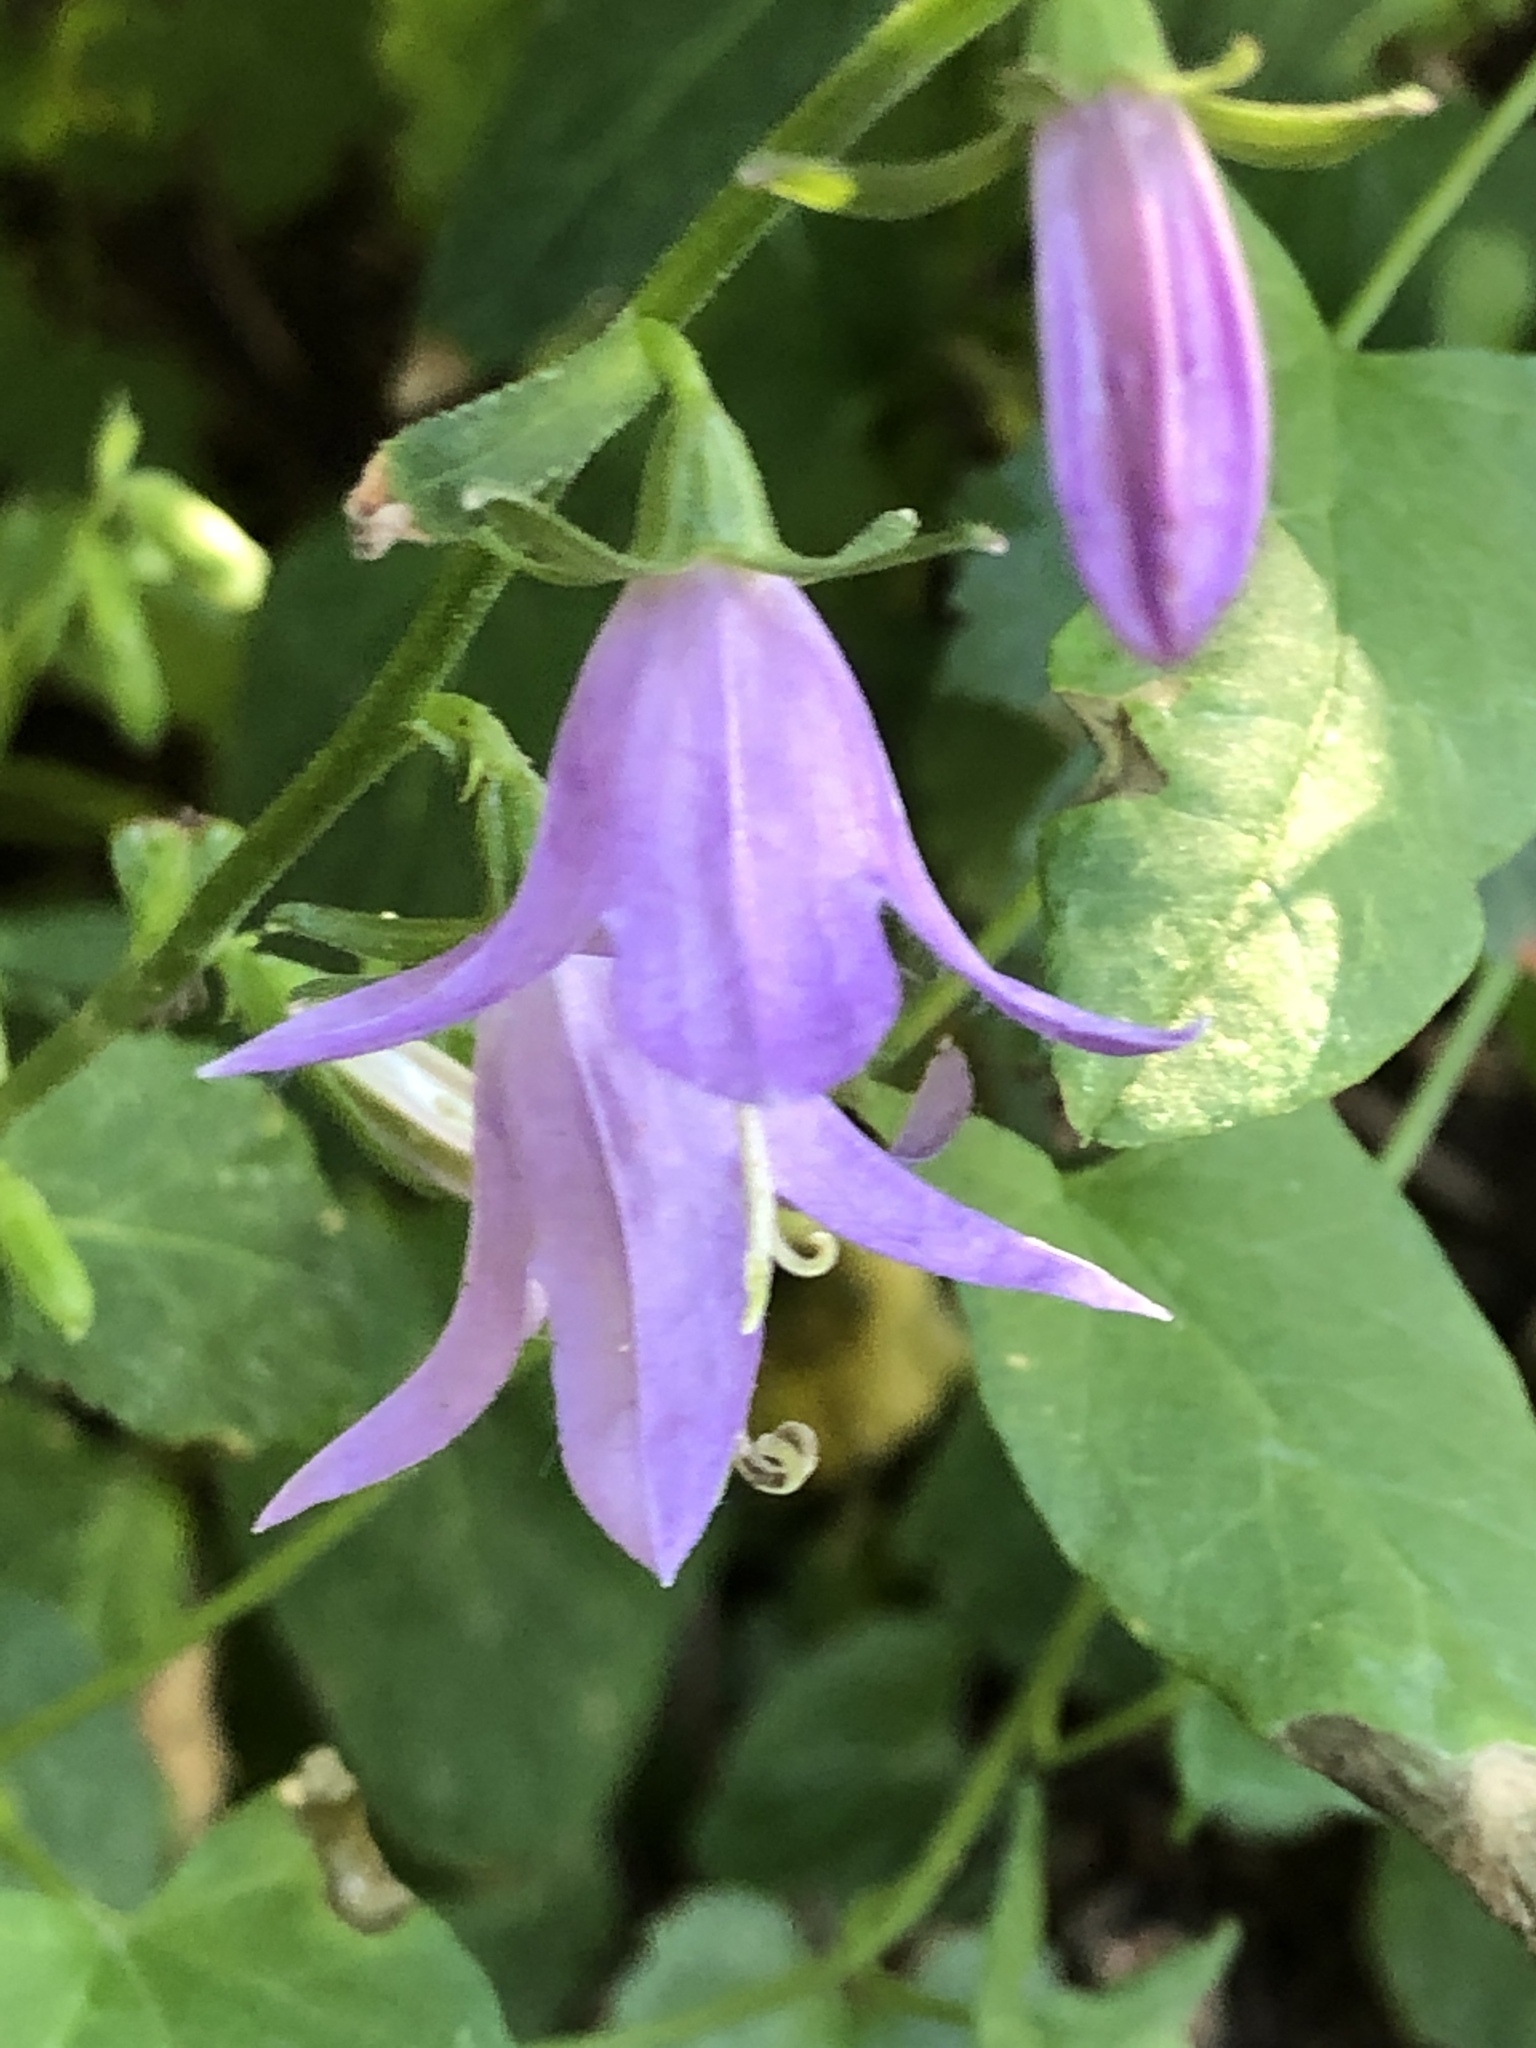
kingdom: Plantae
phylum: Tracheophyta
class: Magnoliopsida
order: Asterales
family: Campanulaceae
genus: Campanula
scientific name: Campanula rapunculoides
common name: Creeping bellflower
